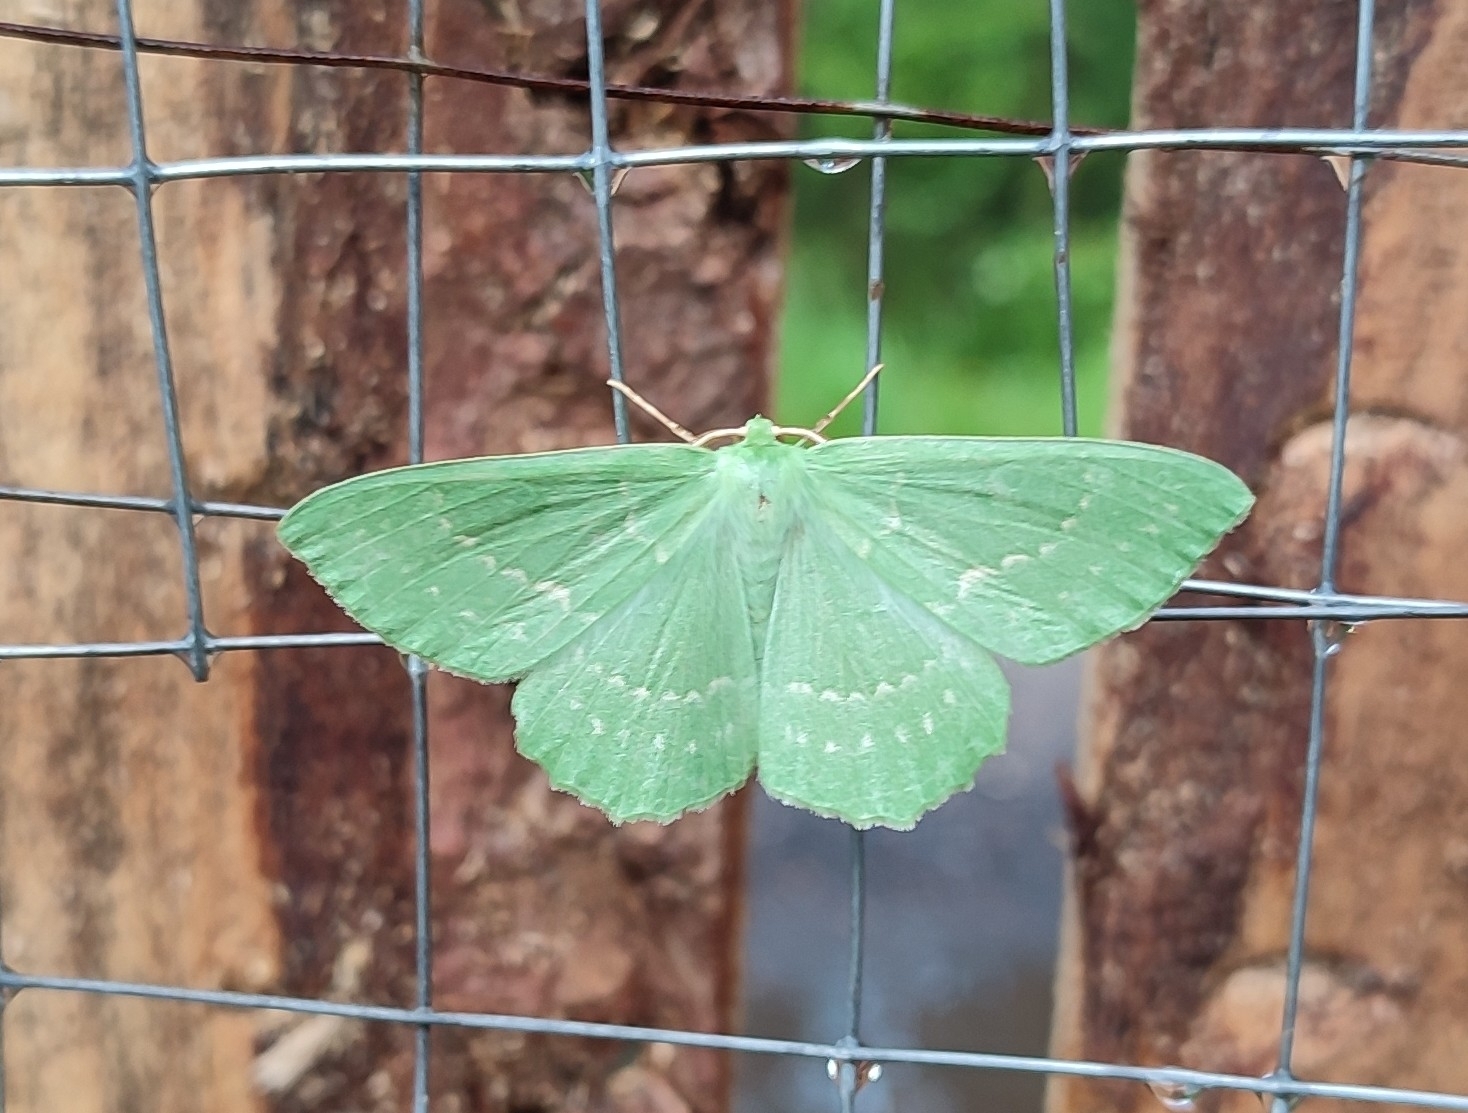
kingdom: Animalia
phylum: Arthropoda
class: Insecta
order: Lepidoptera
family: Geometridae
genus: Geometra
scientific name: Geometra papilionaria
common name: Large emerald
